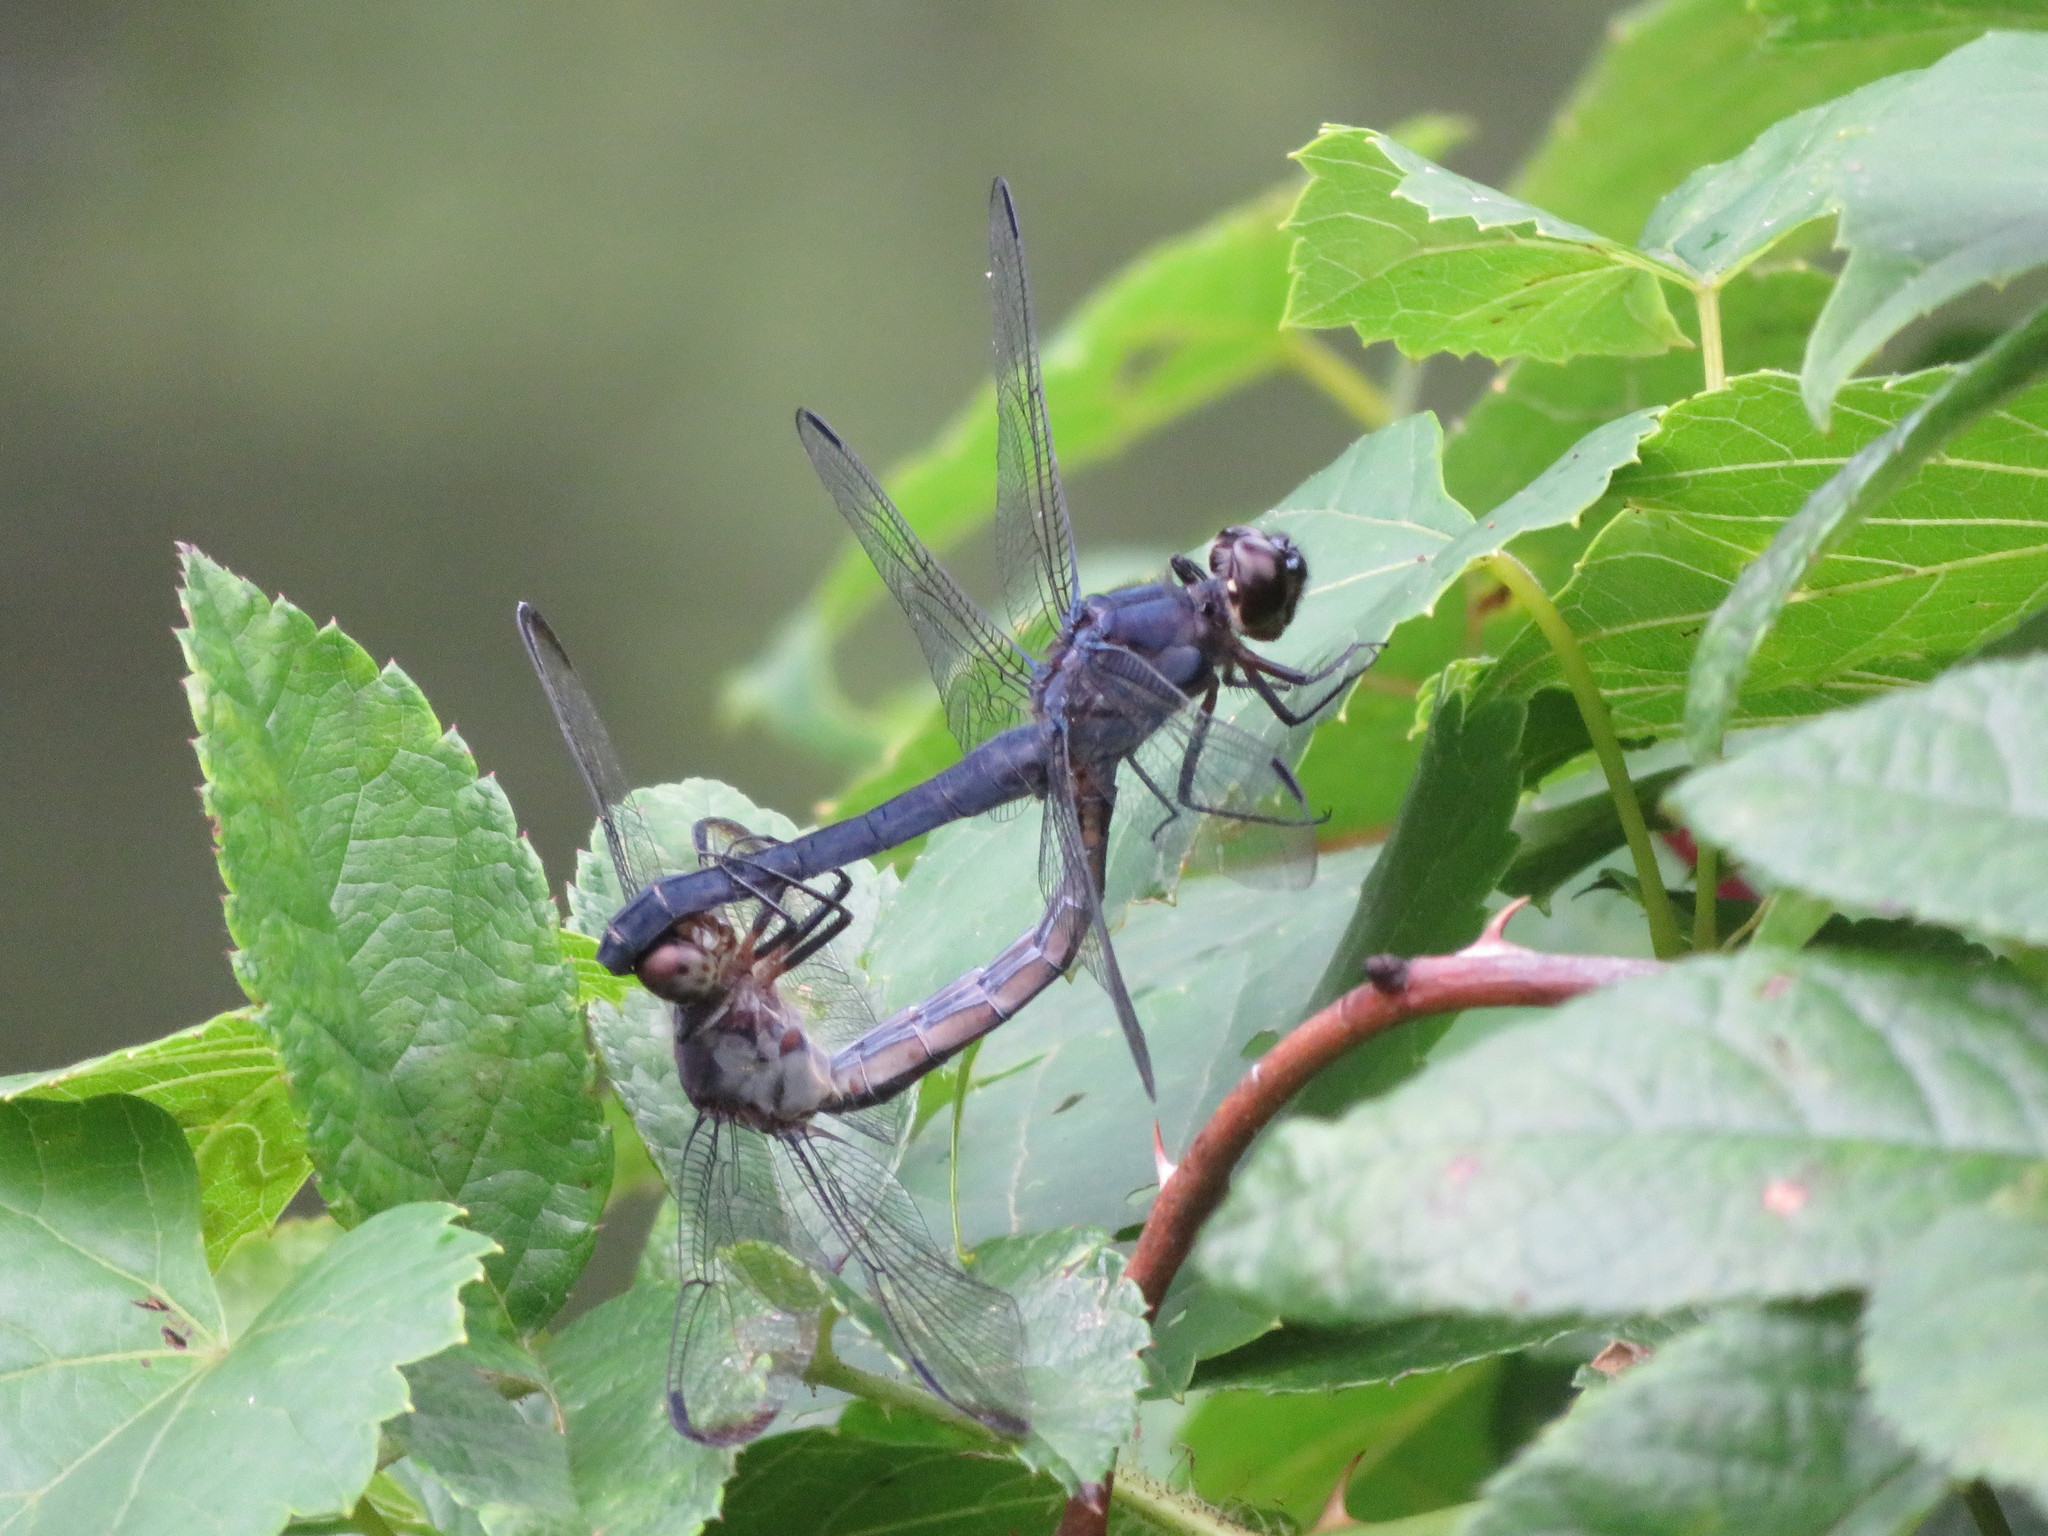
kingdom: Animalia
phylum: Arthropoda
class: Insecta
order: Odonata
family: Libellulidae
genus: Libellula
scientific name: Libellula incesta
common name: Slaty skimmer
